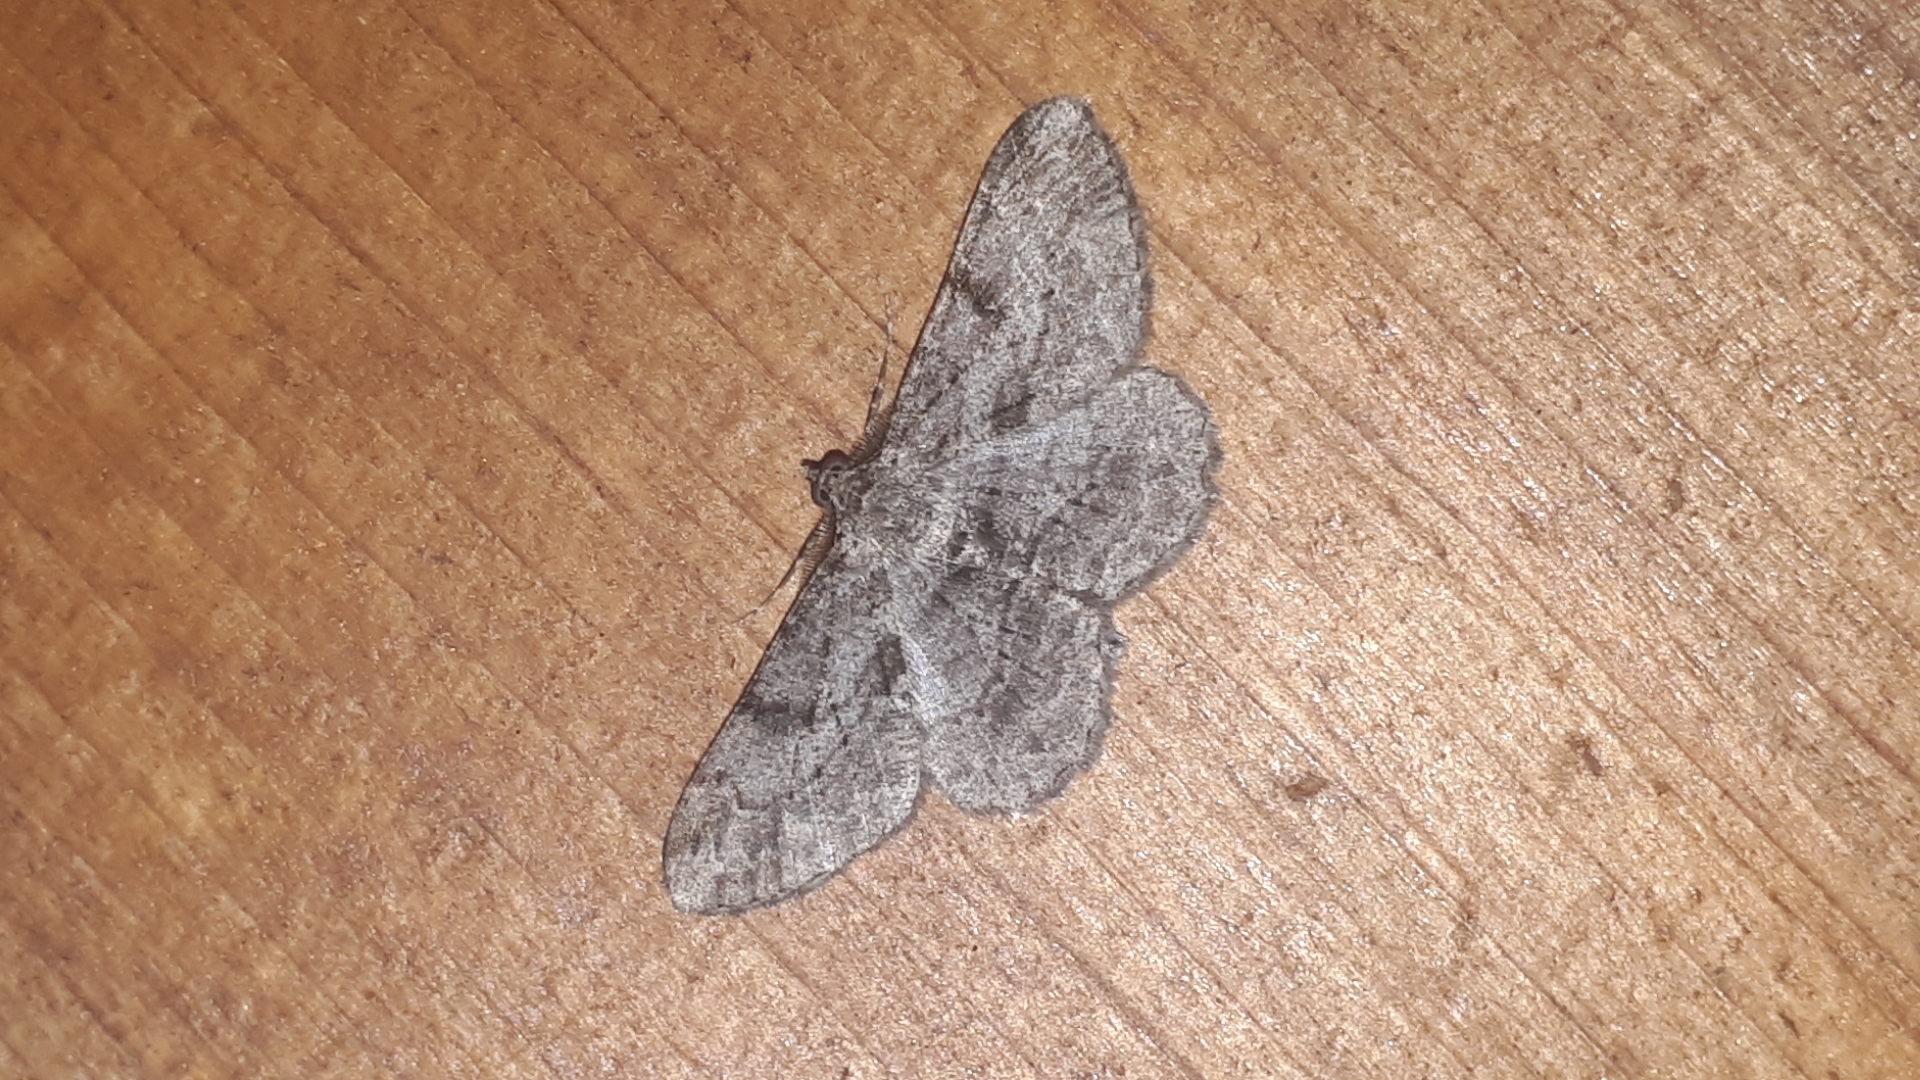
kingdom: Animalia
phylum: Arthropoda
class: Insecta
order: Lepidoptera
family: Geometridae
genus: Peribatodes
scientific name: Peribatodes rhomboidaria
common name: Willow beauty
